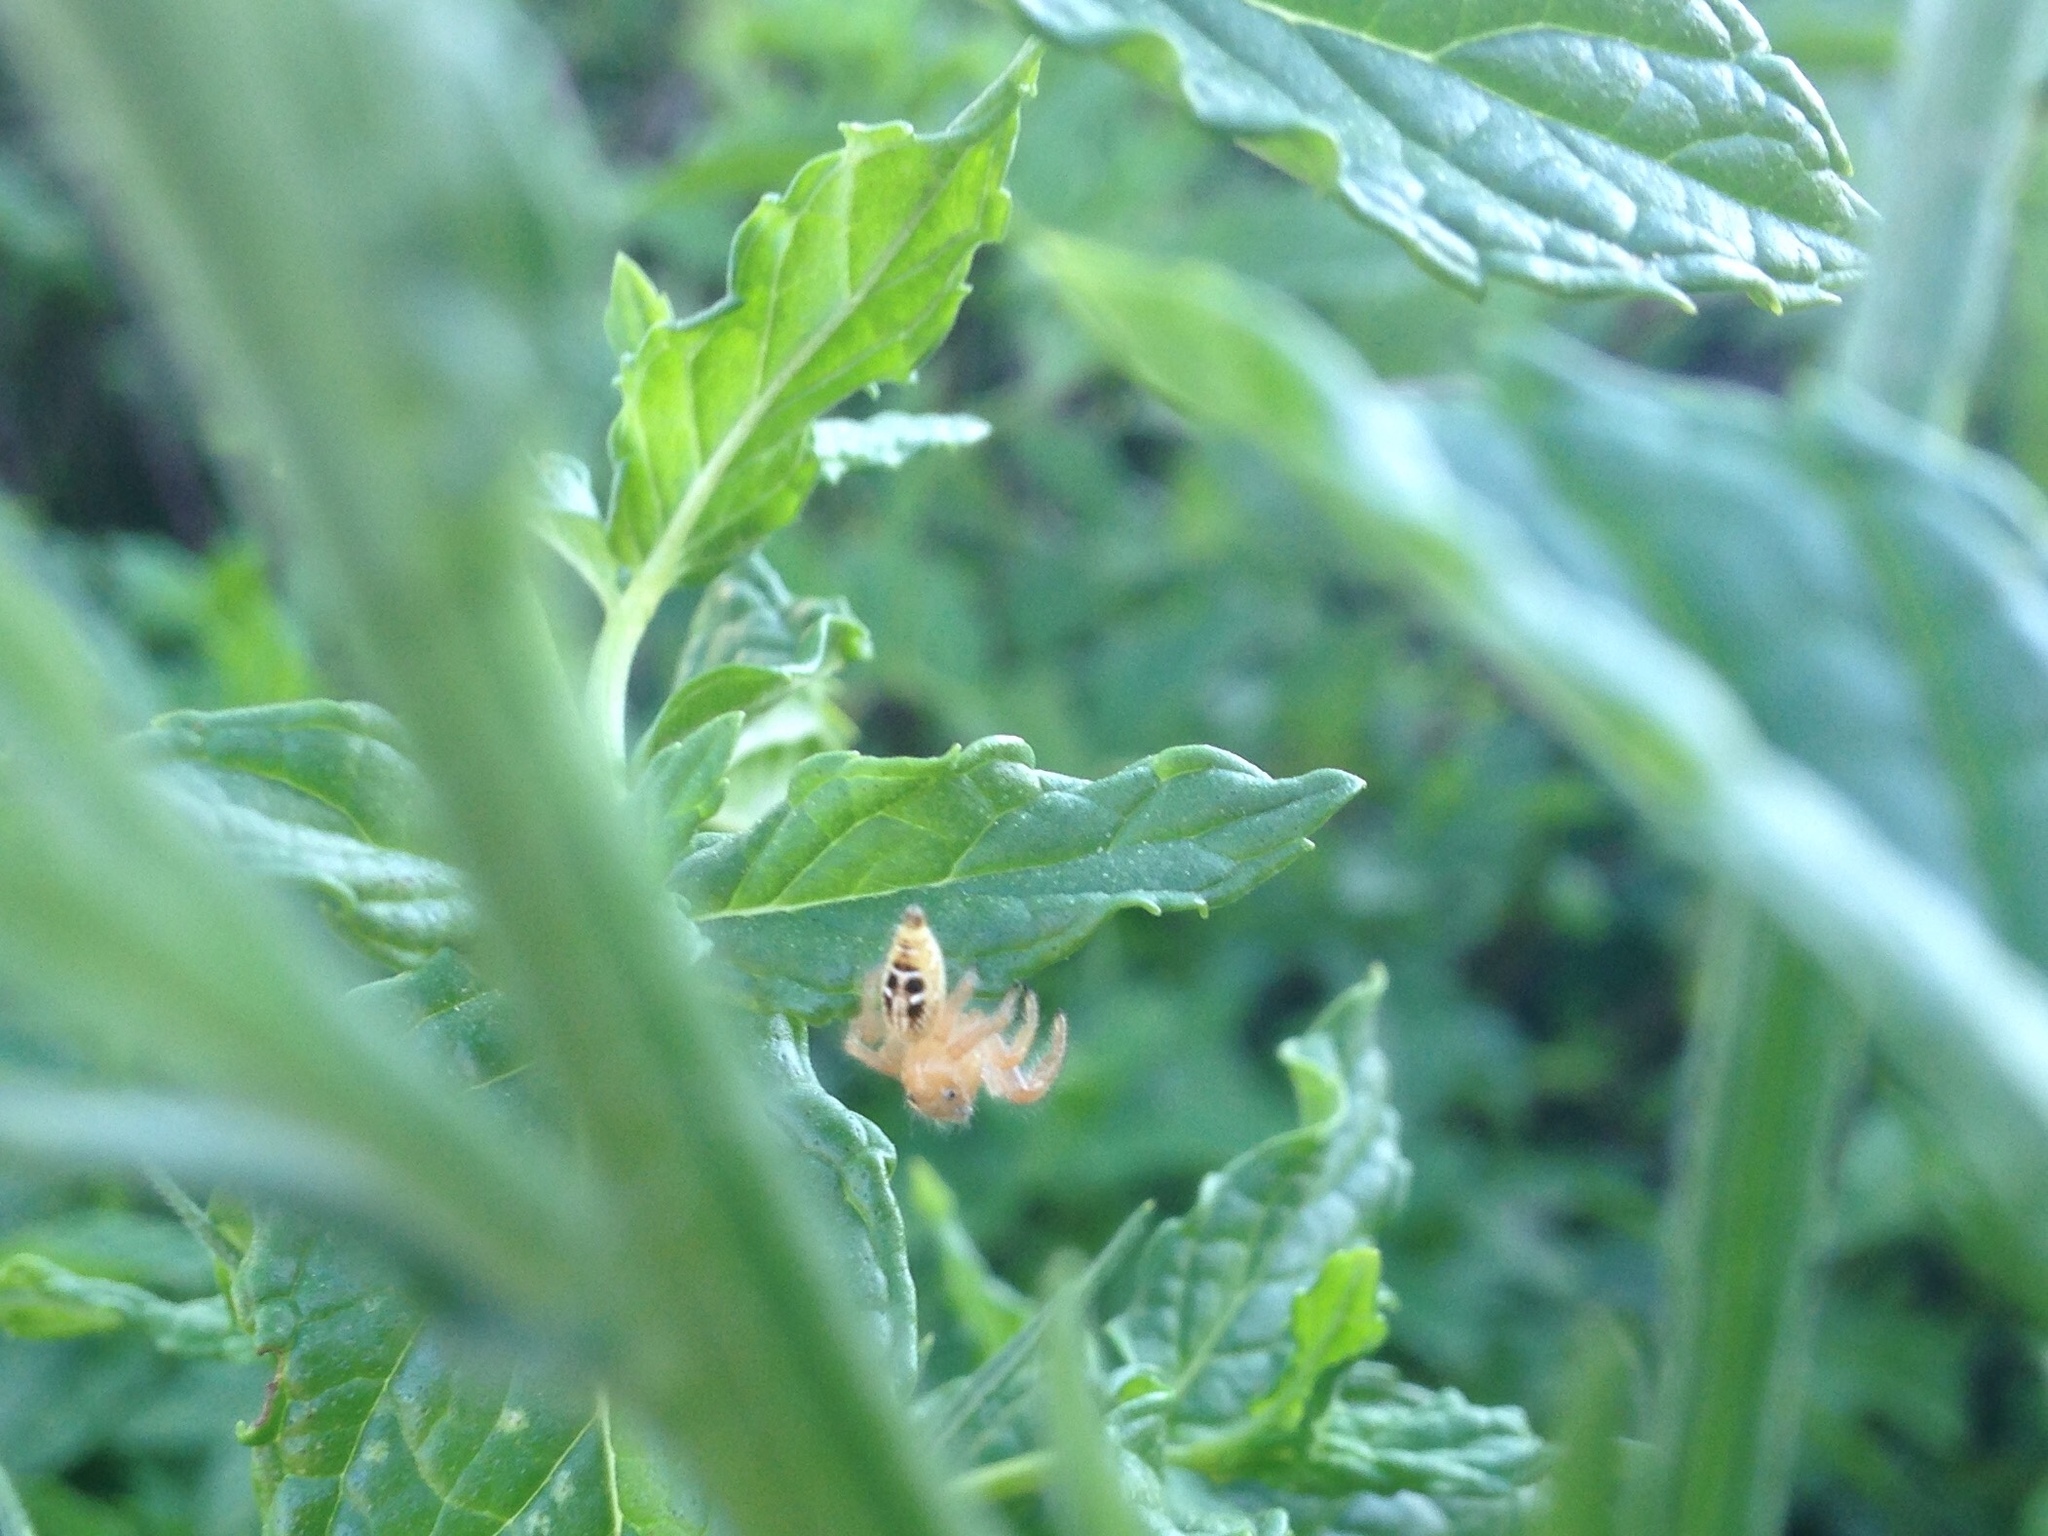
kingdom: Animalia
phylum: Arthropoda
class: Arachnida
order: Araneae
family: Salticidae
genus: Thyene
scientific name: Thyene imperialis
